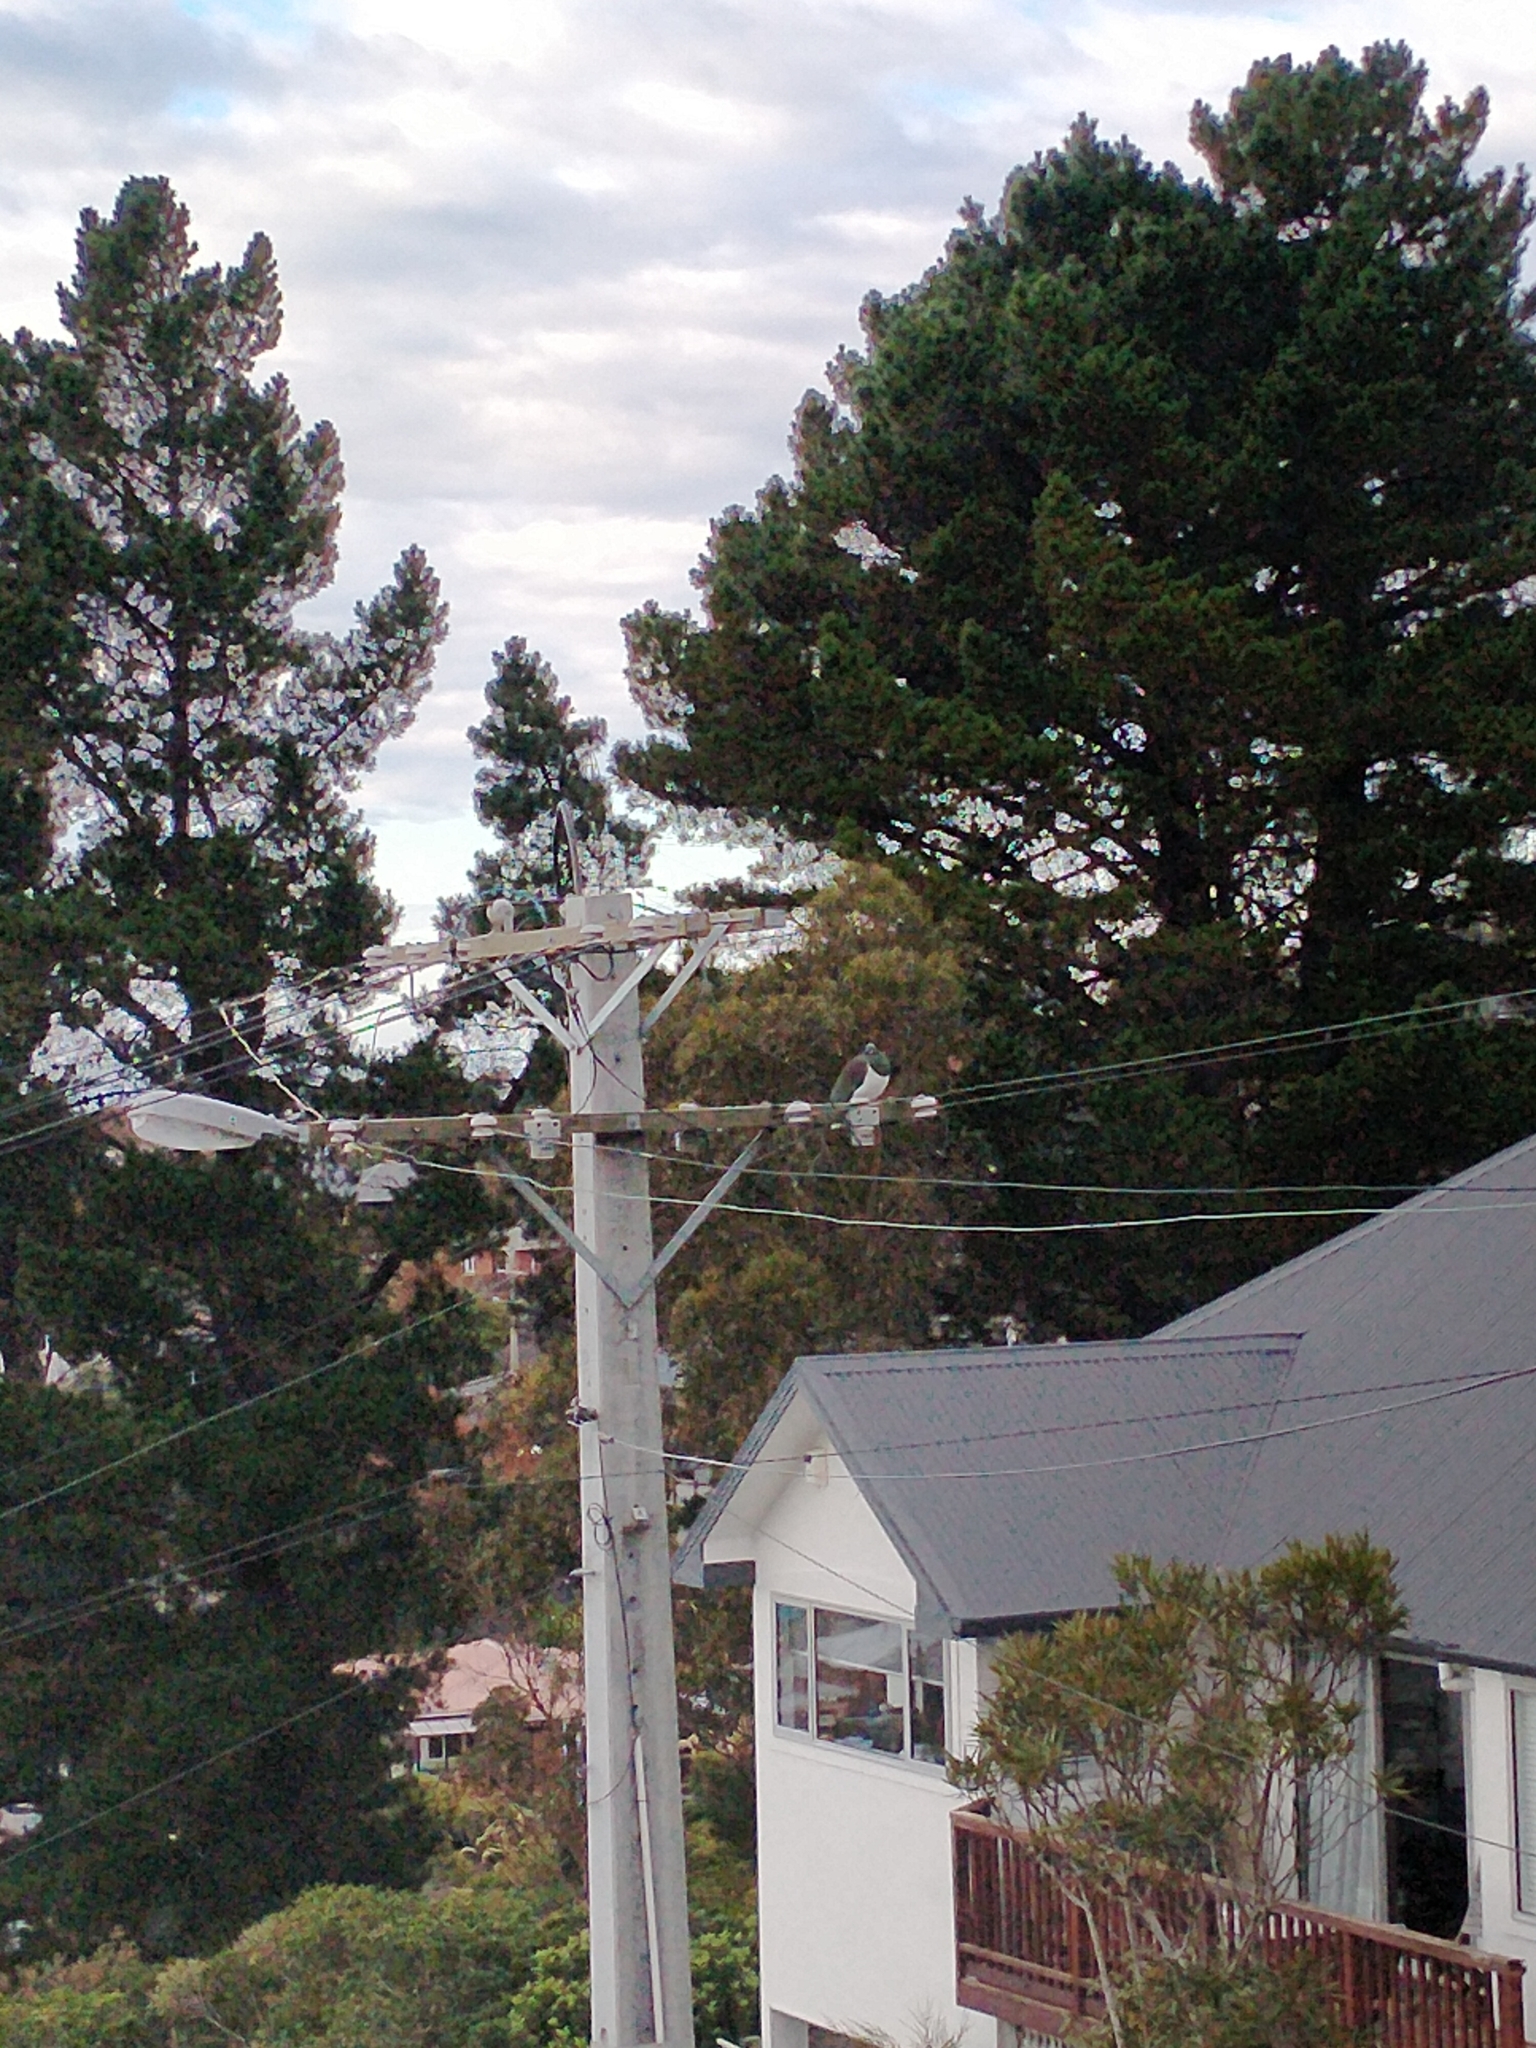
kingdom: Animalia
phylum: Chordata
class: Aves
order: Columbiformes
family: Columbidae
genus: Hemiphaga
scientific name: Hemiphaga novaeseelandiae
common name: New zealand pigeon
